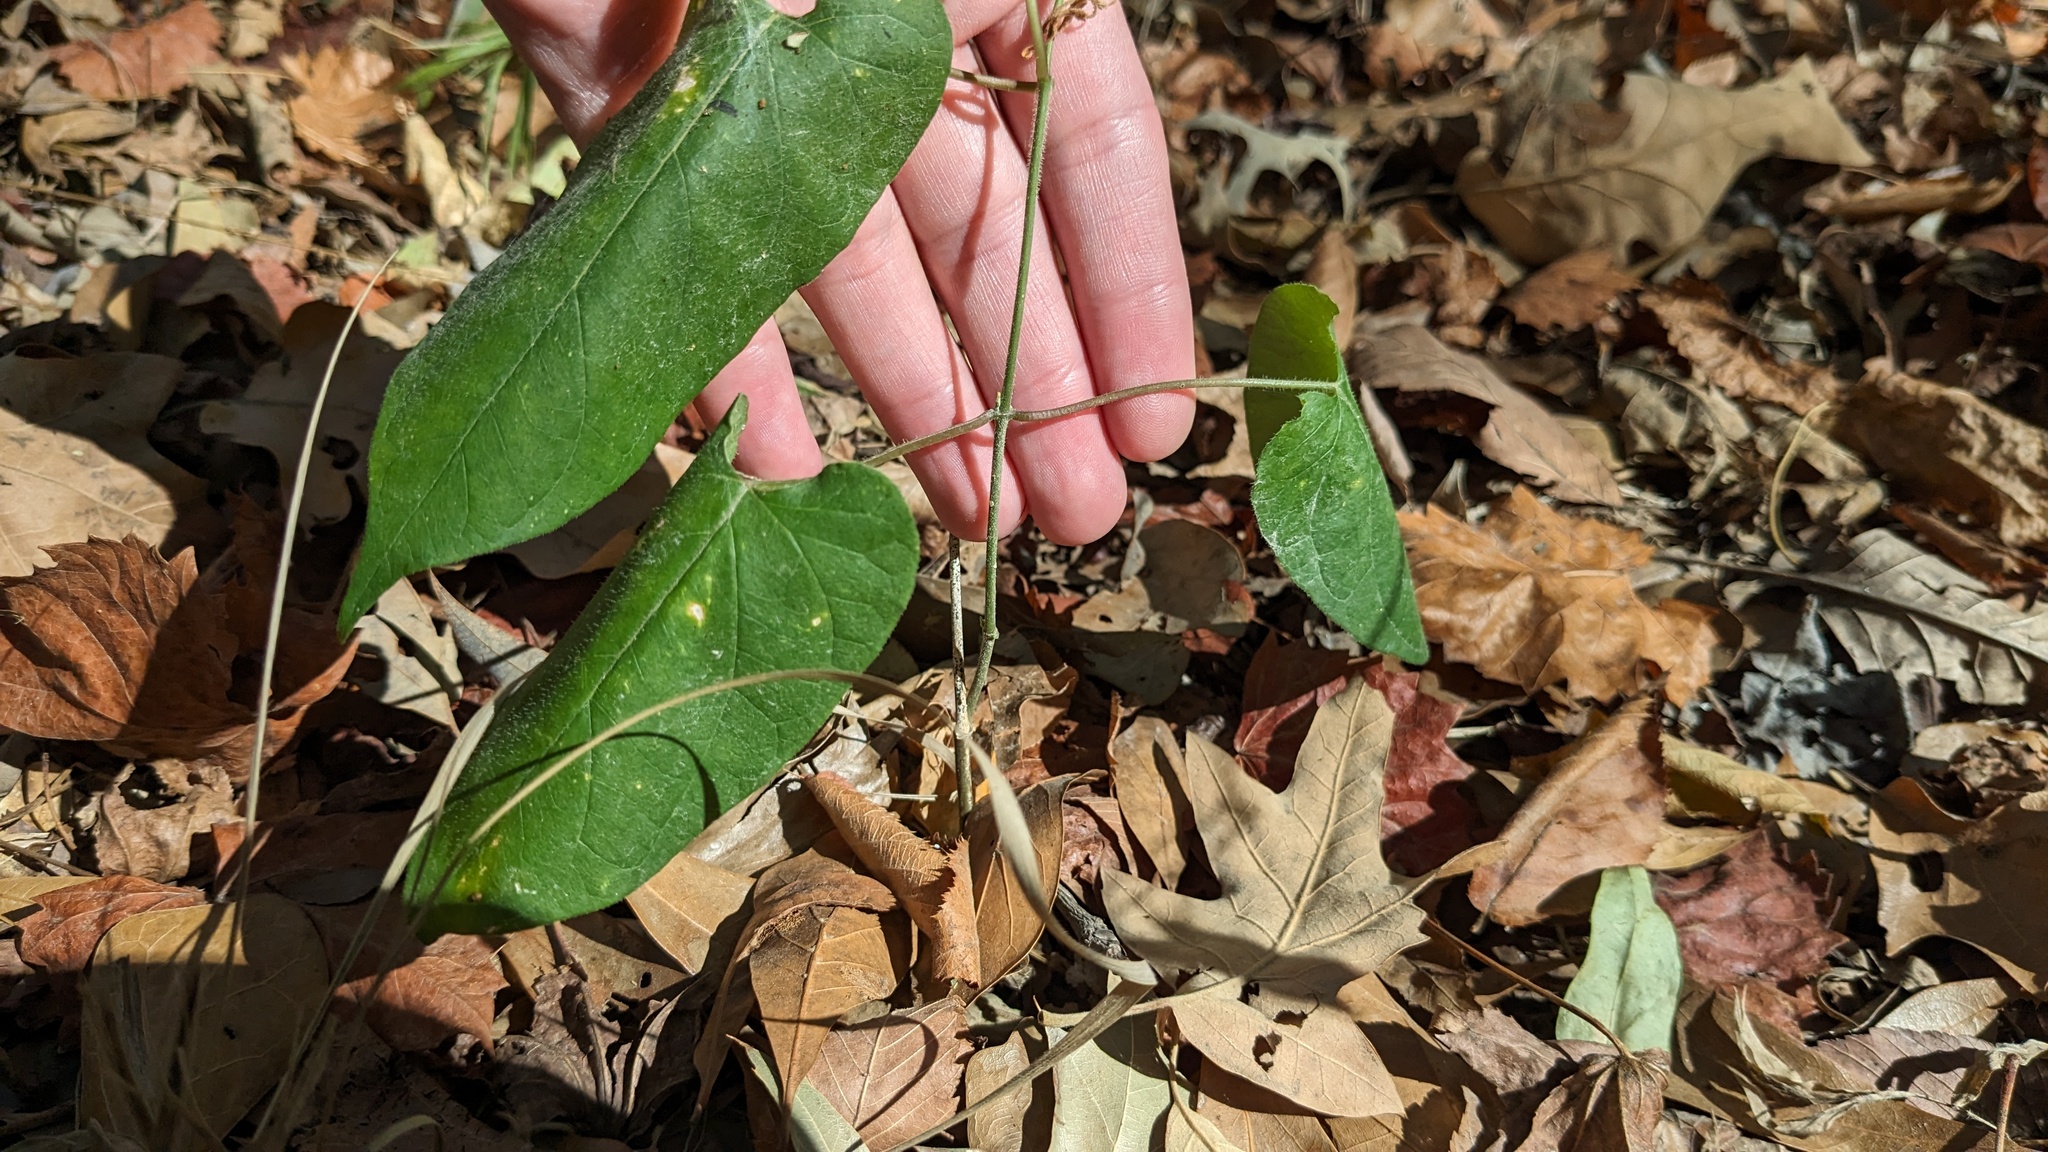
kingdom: Plantae
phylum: Tracheophyta
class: Magnoliopsida
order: Gentianales
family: Apocynaceae
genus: Gonolobus
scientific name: Gonolobus suberosus
